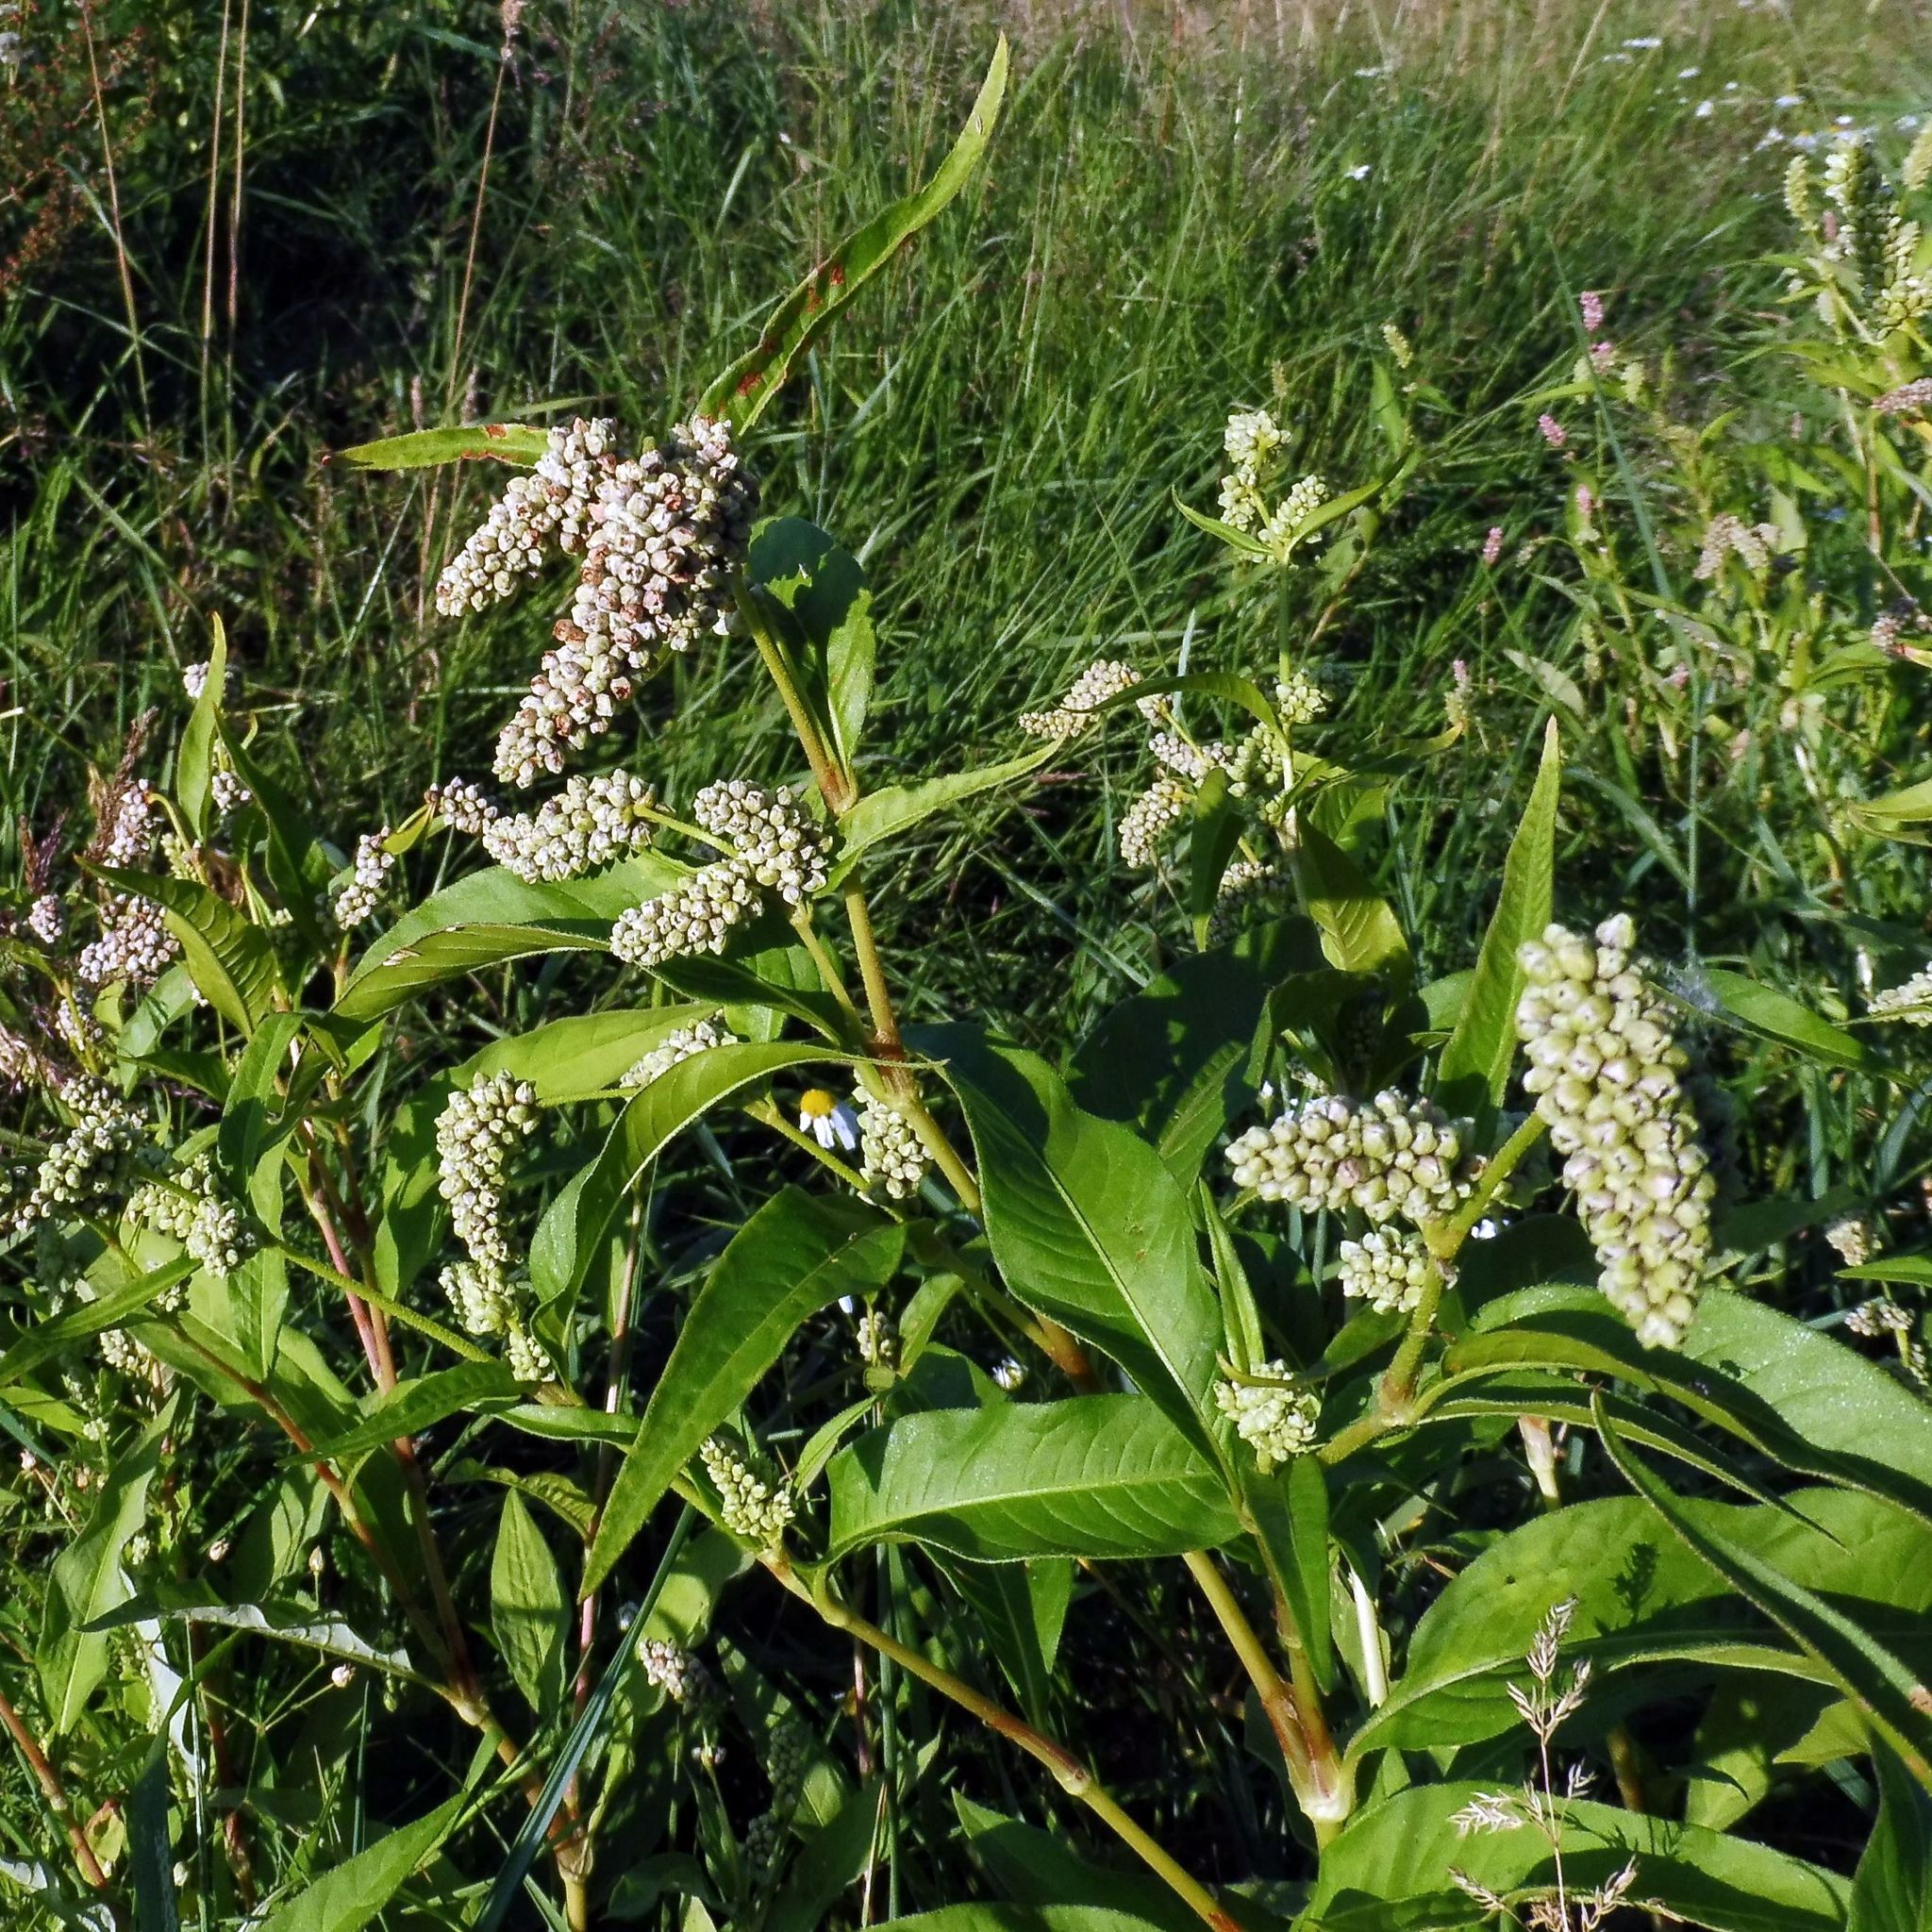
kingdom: Plantae
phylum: Tracheophyta
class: Magnoliopsida
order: Caryophyllales
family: Polygonaceae
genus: Persicaria
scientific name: Persicaria lapathifolia
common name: Curlytop knotweed
